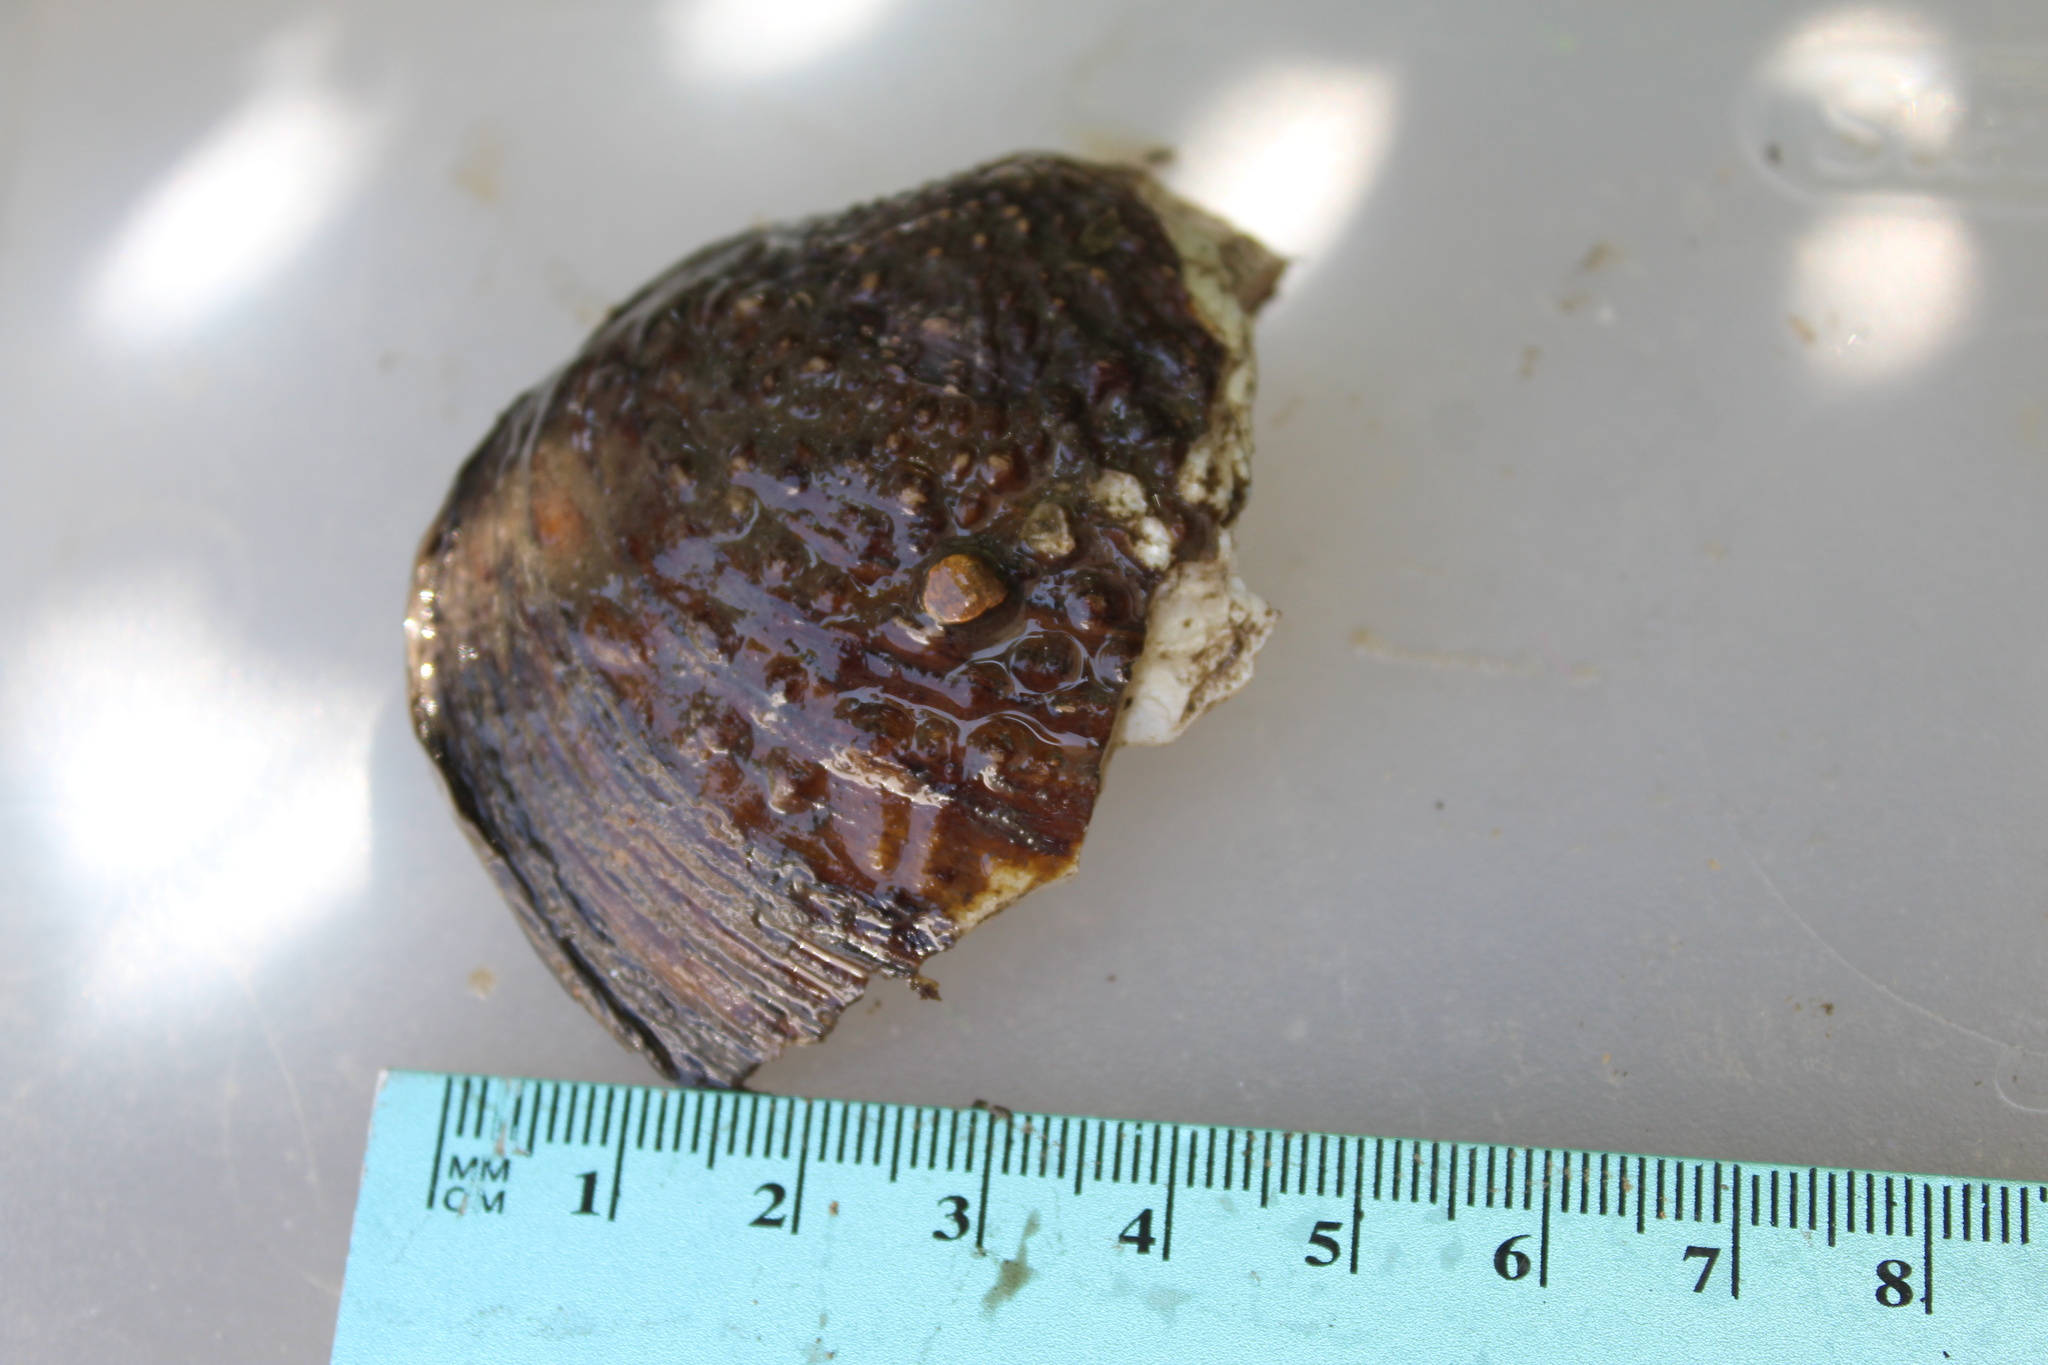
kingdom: Animalia
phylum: Mollusca
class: Bivalvia
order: Unionida
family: Unionidae
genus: Tritogonia
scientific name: Tritogonia verrucosa
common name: Pistolgrip
